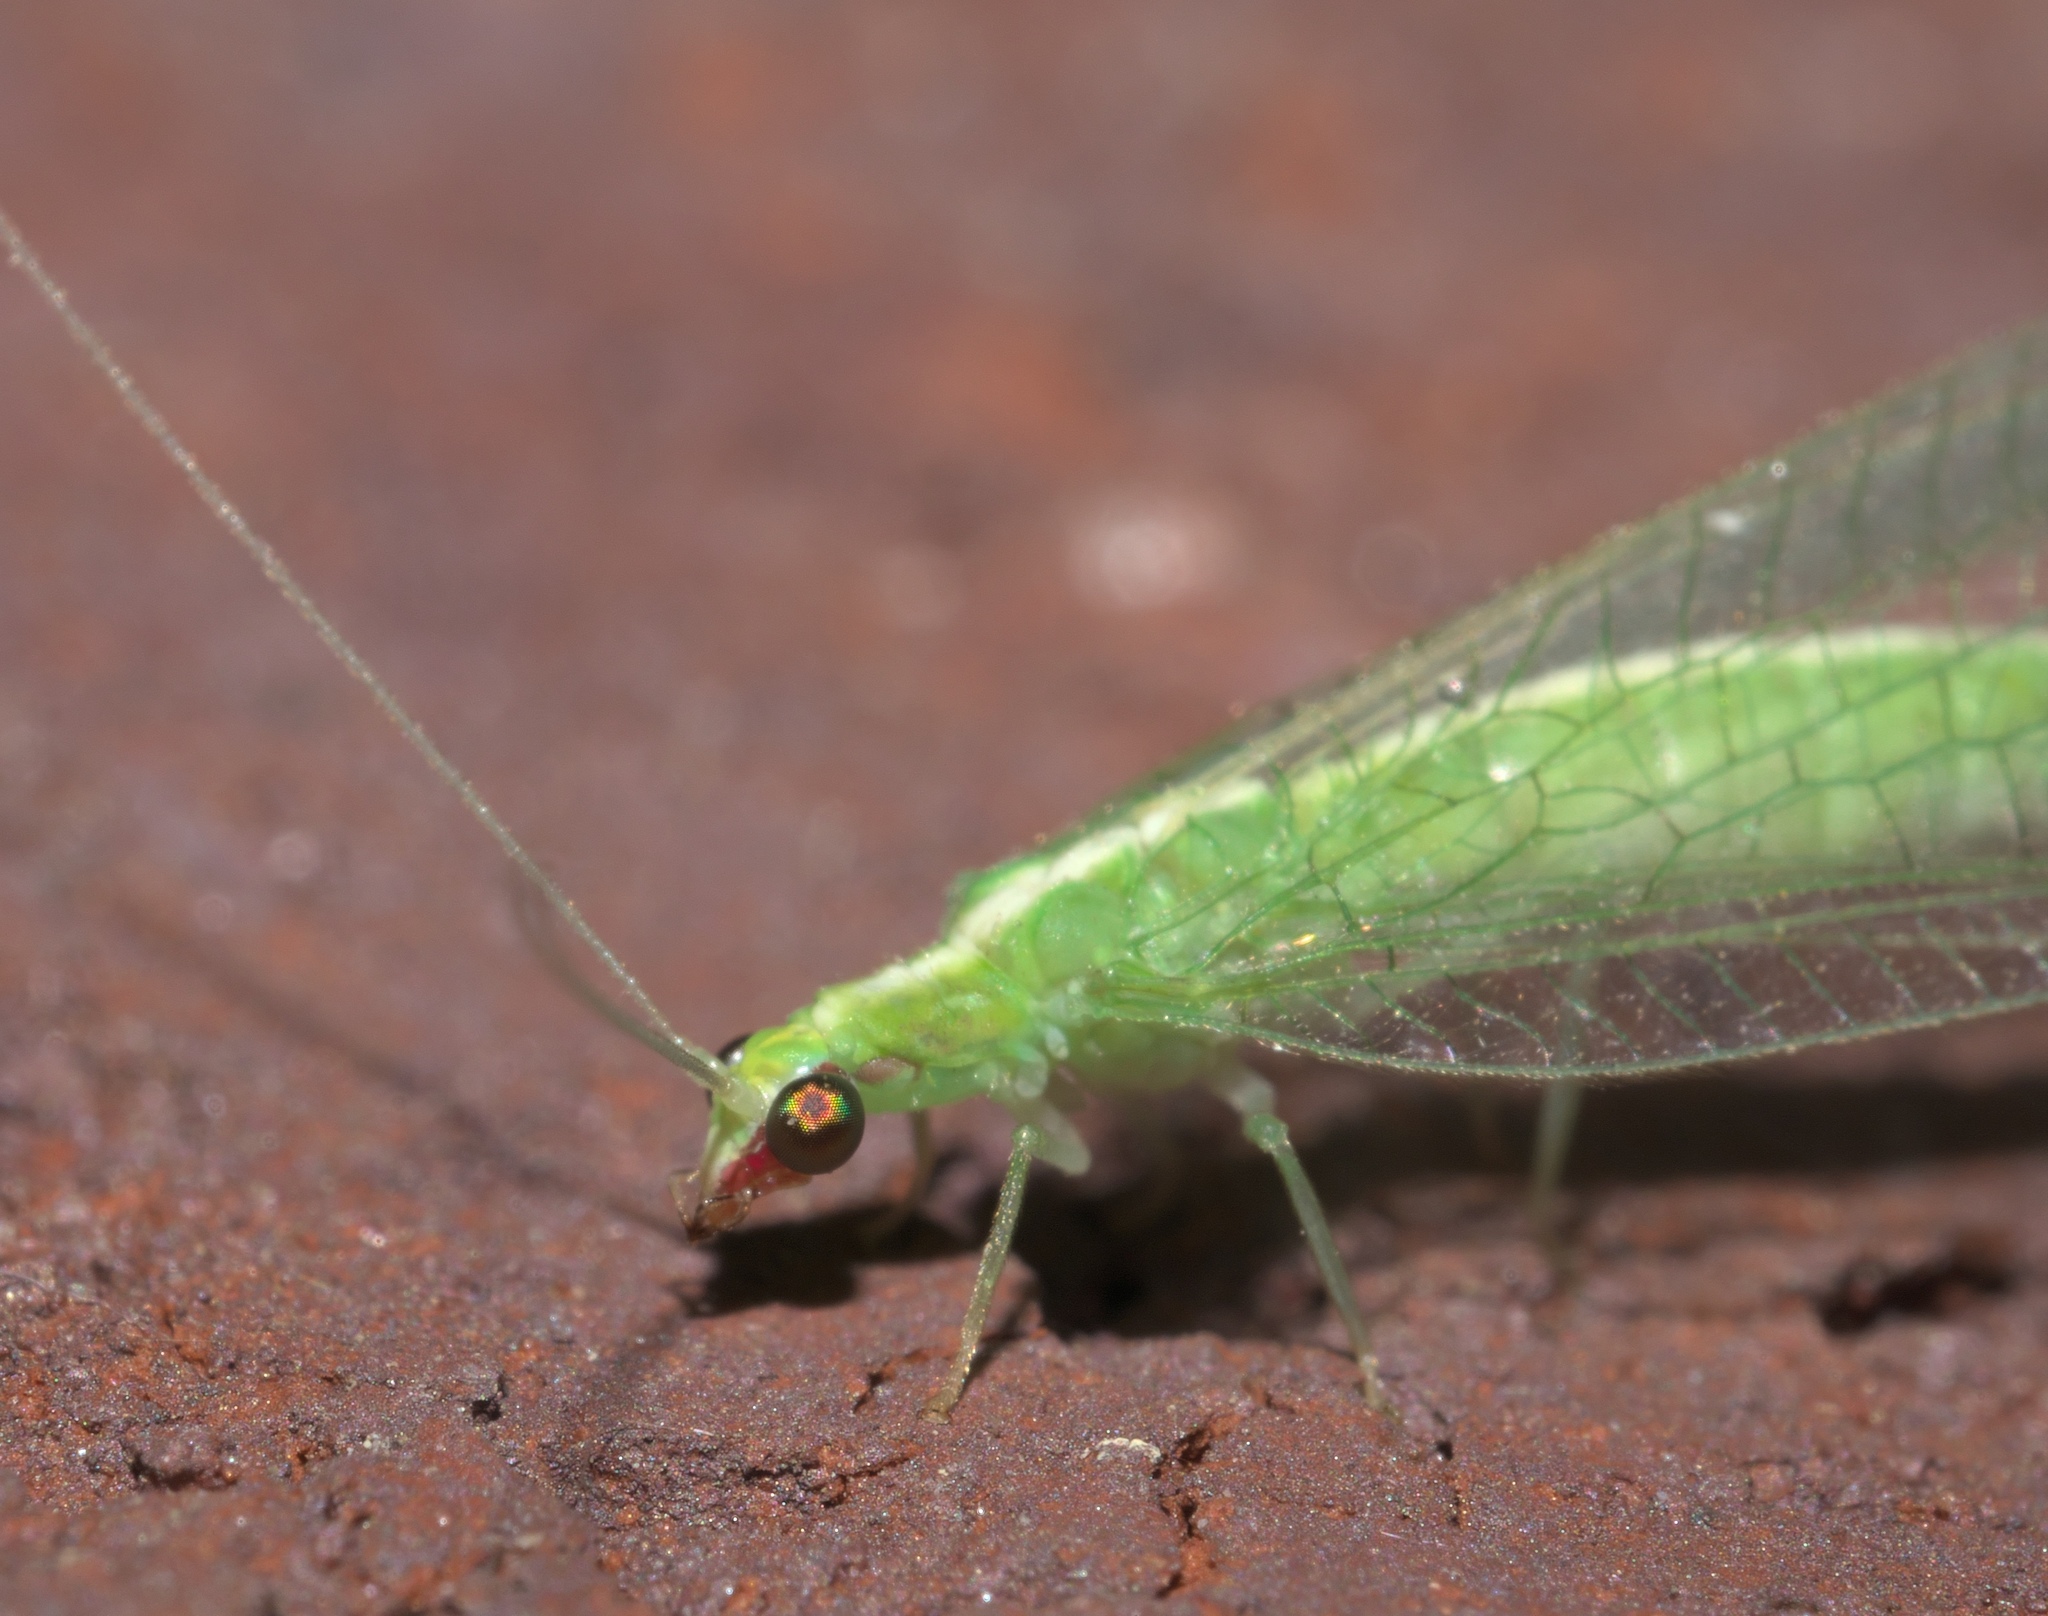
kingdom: Animalia
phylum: Arthropoda
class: Insecta
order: Neuroptera
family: Chrysopidae
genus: Chrysoperla
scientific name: Chrysoperla rufilabris
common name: Red-lipped green lacewing
